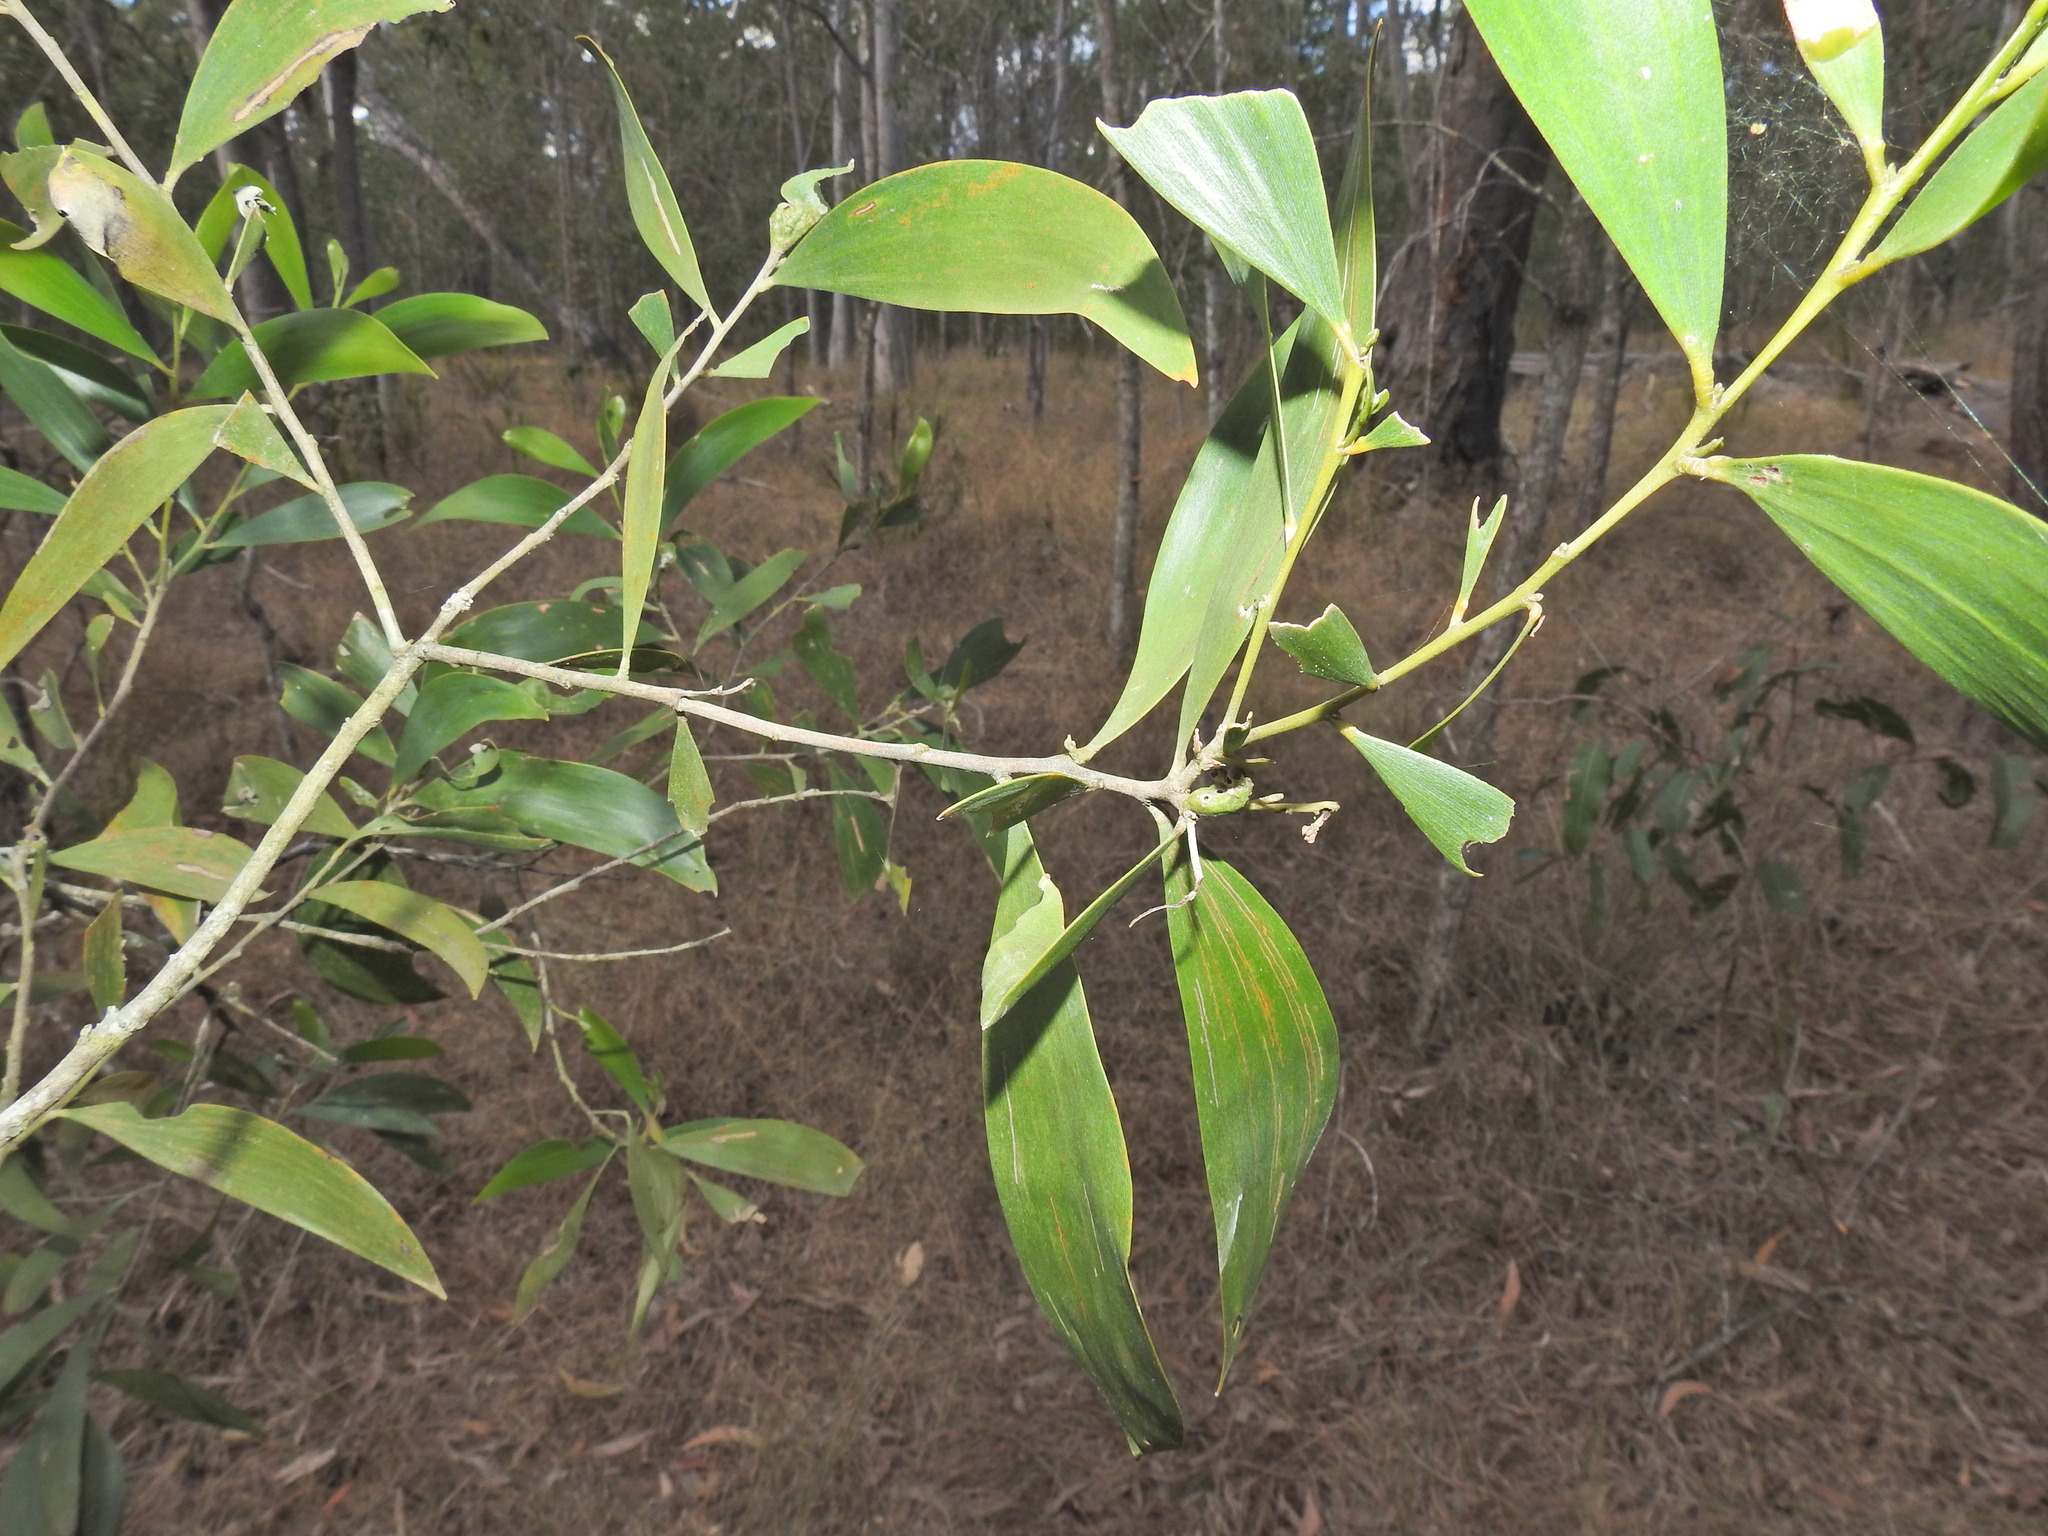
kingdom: Plantae
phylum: Tracheophyta
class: Magnoliopsida
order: Fabales
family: Fabaceae
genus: Acacia
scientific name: Acacia disparrima
